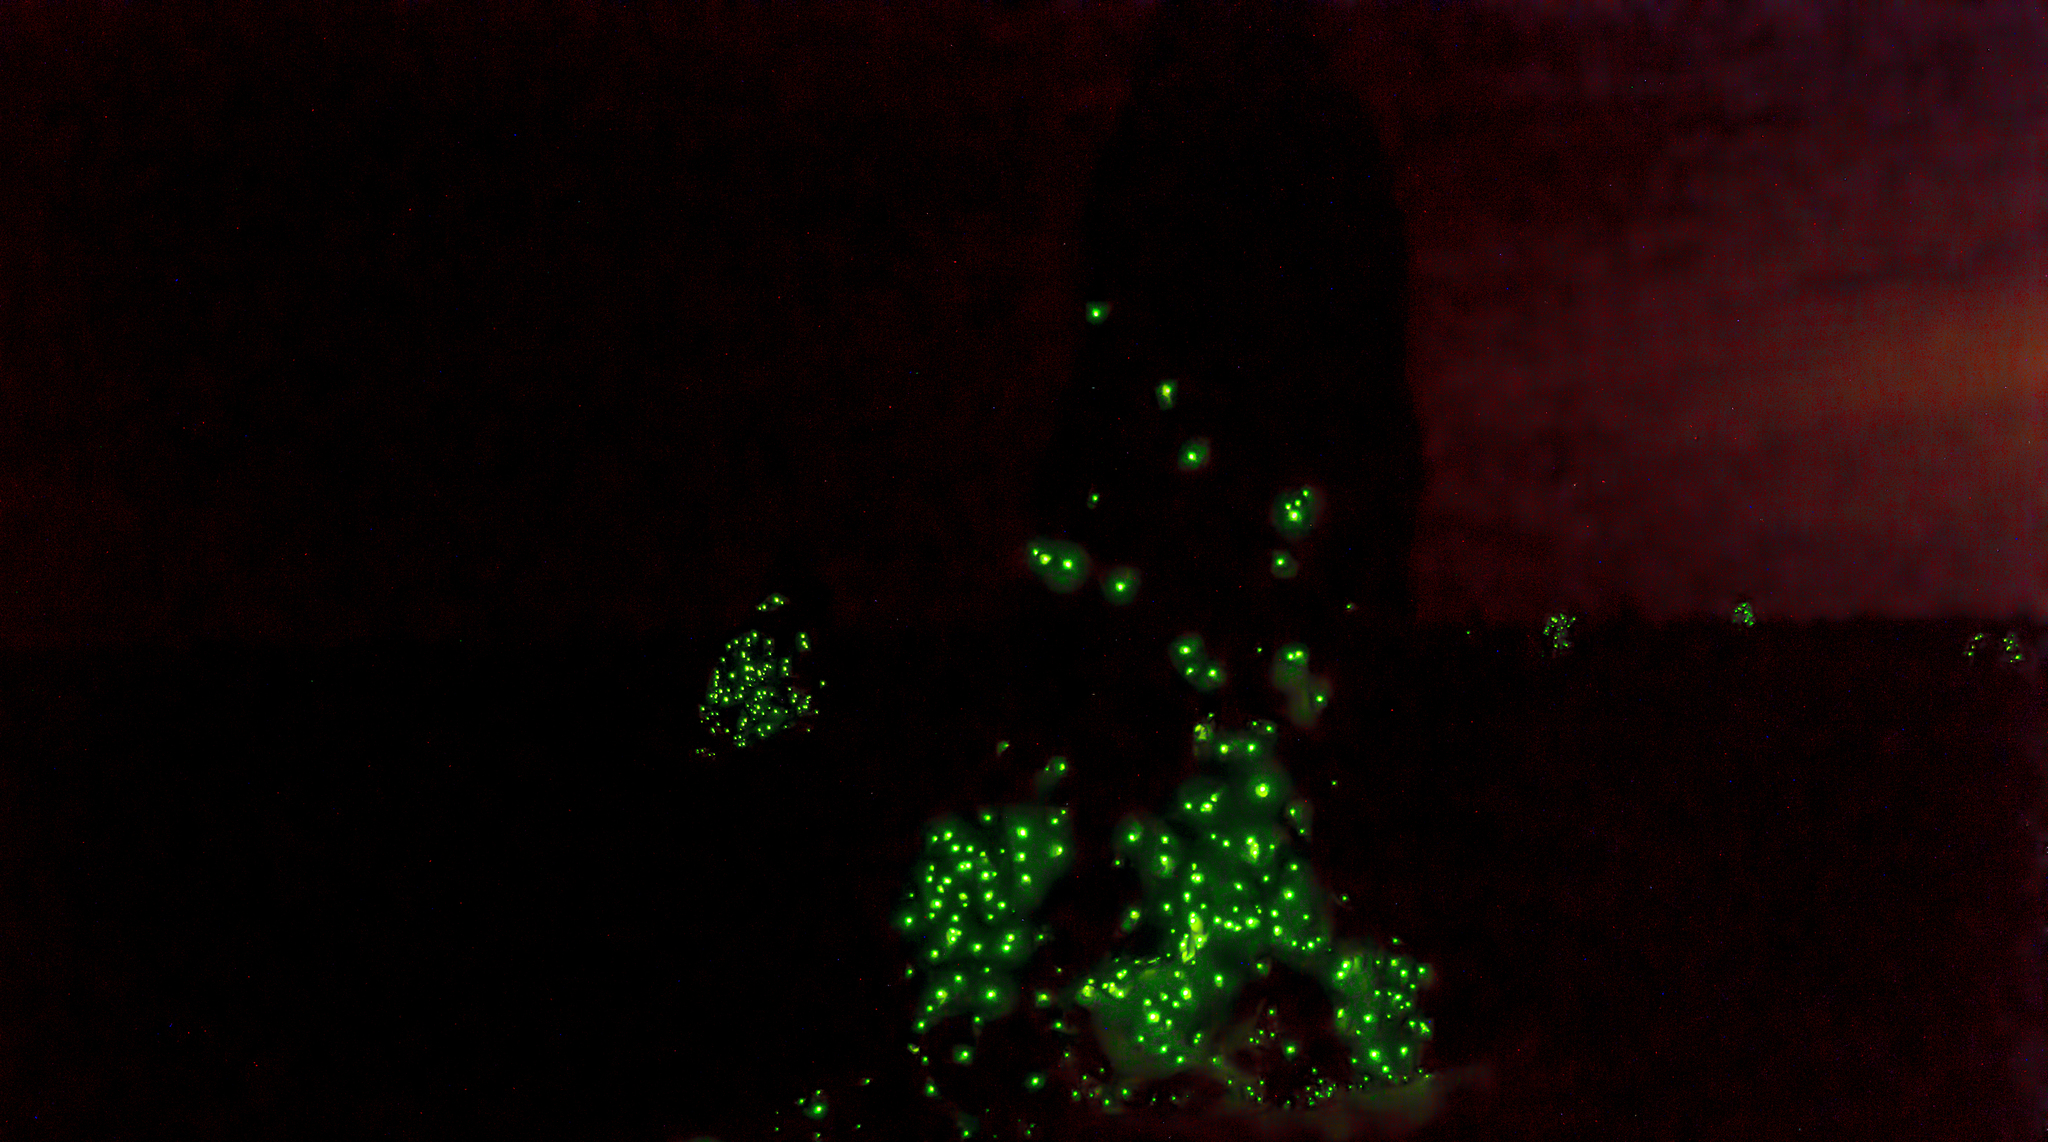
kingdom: Animalia
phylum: Arthropoda
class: Insecta
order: Coleoptera
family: Elateridae
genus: Pyrearinus
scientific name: Pyrearinus termitilluminans
